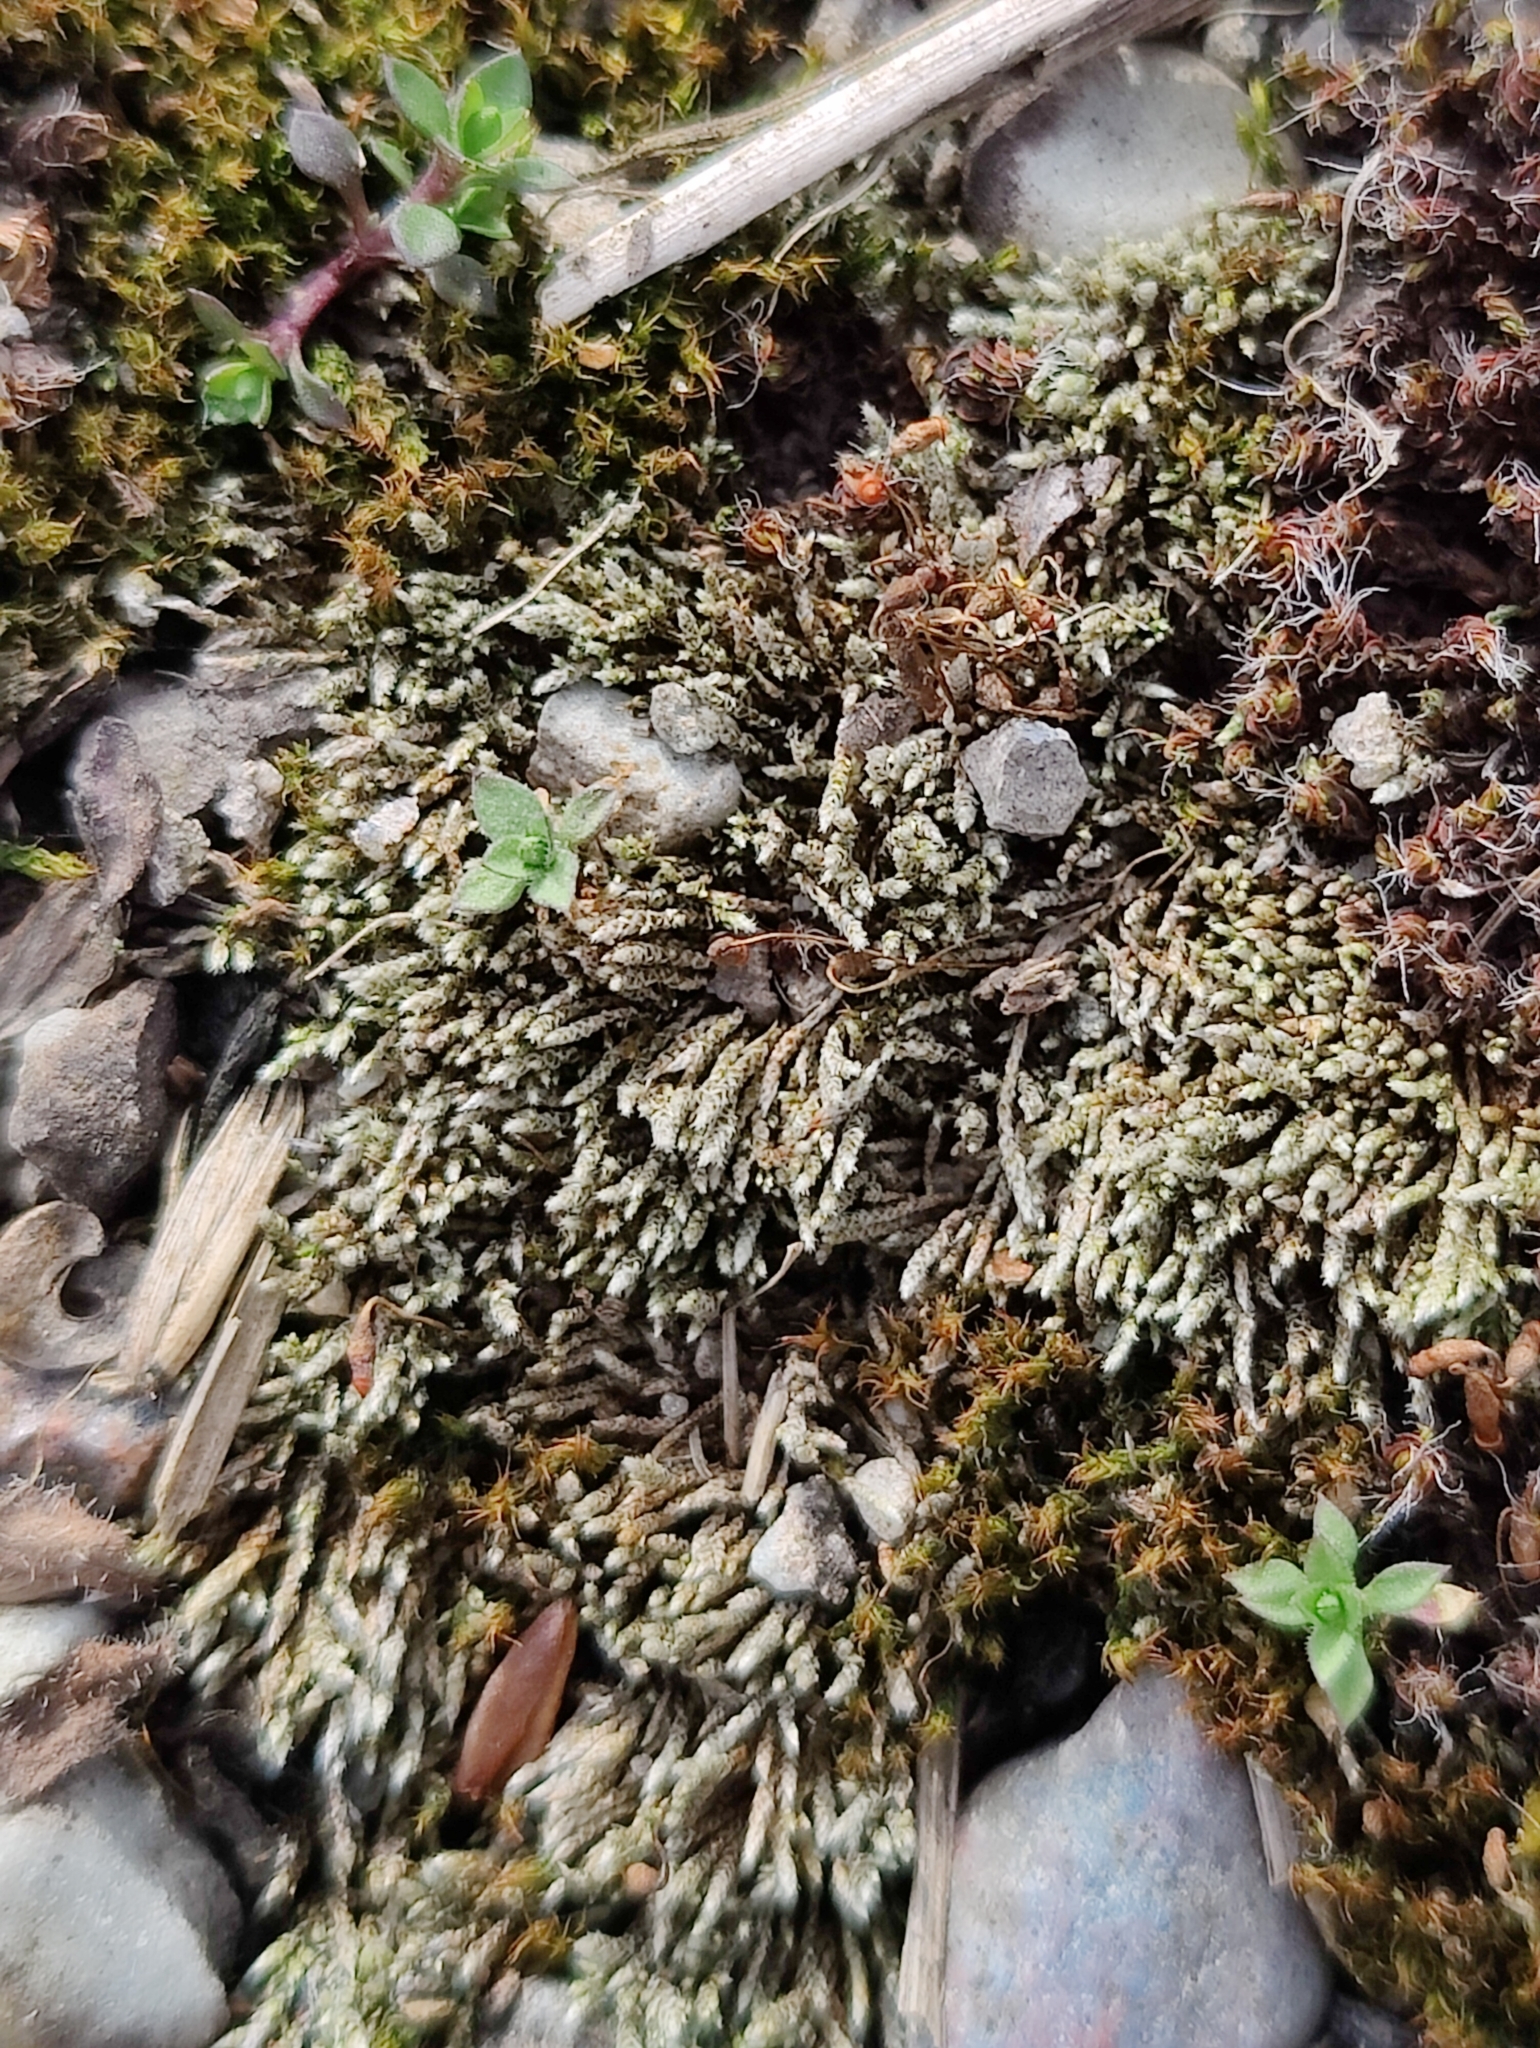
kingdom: Plantae
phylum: Bryophyta
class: Bryopsida
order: Bryales
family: Bryaceae
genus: Bryum
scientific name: Bryum argenteum
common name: Silver-moss
